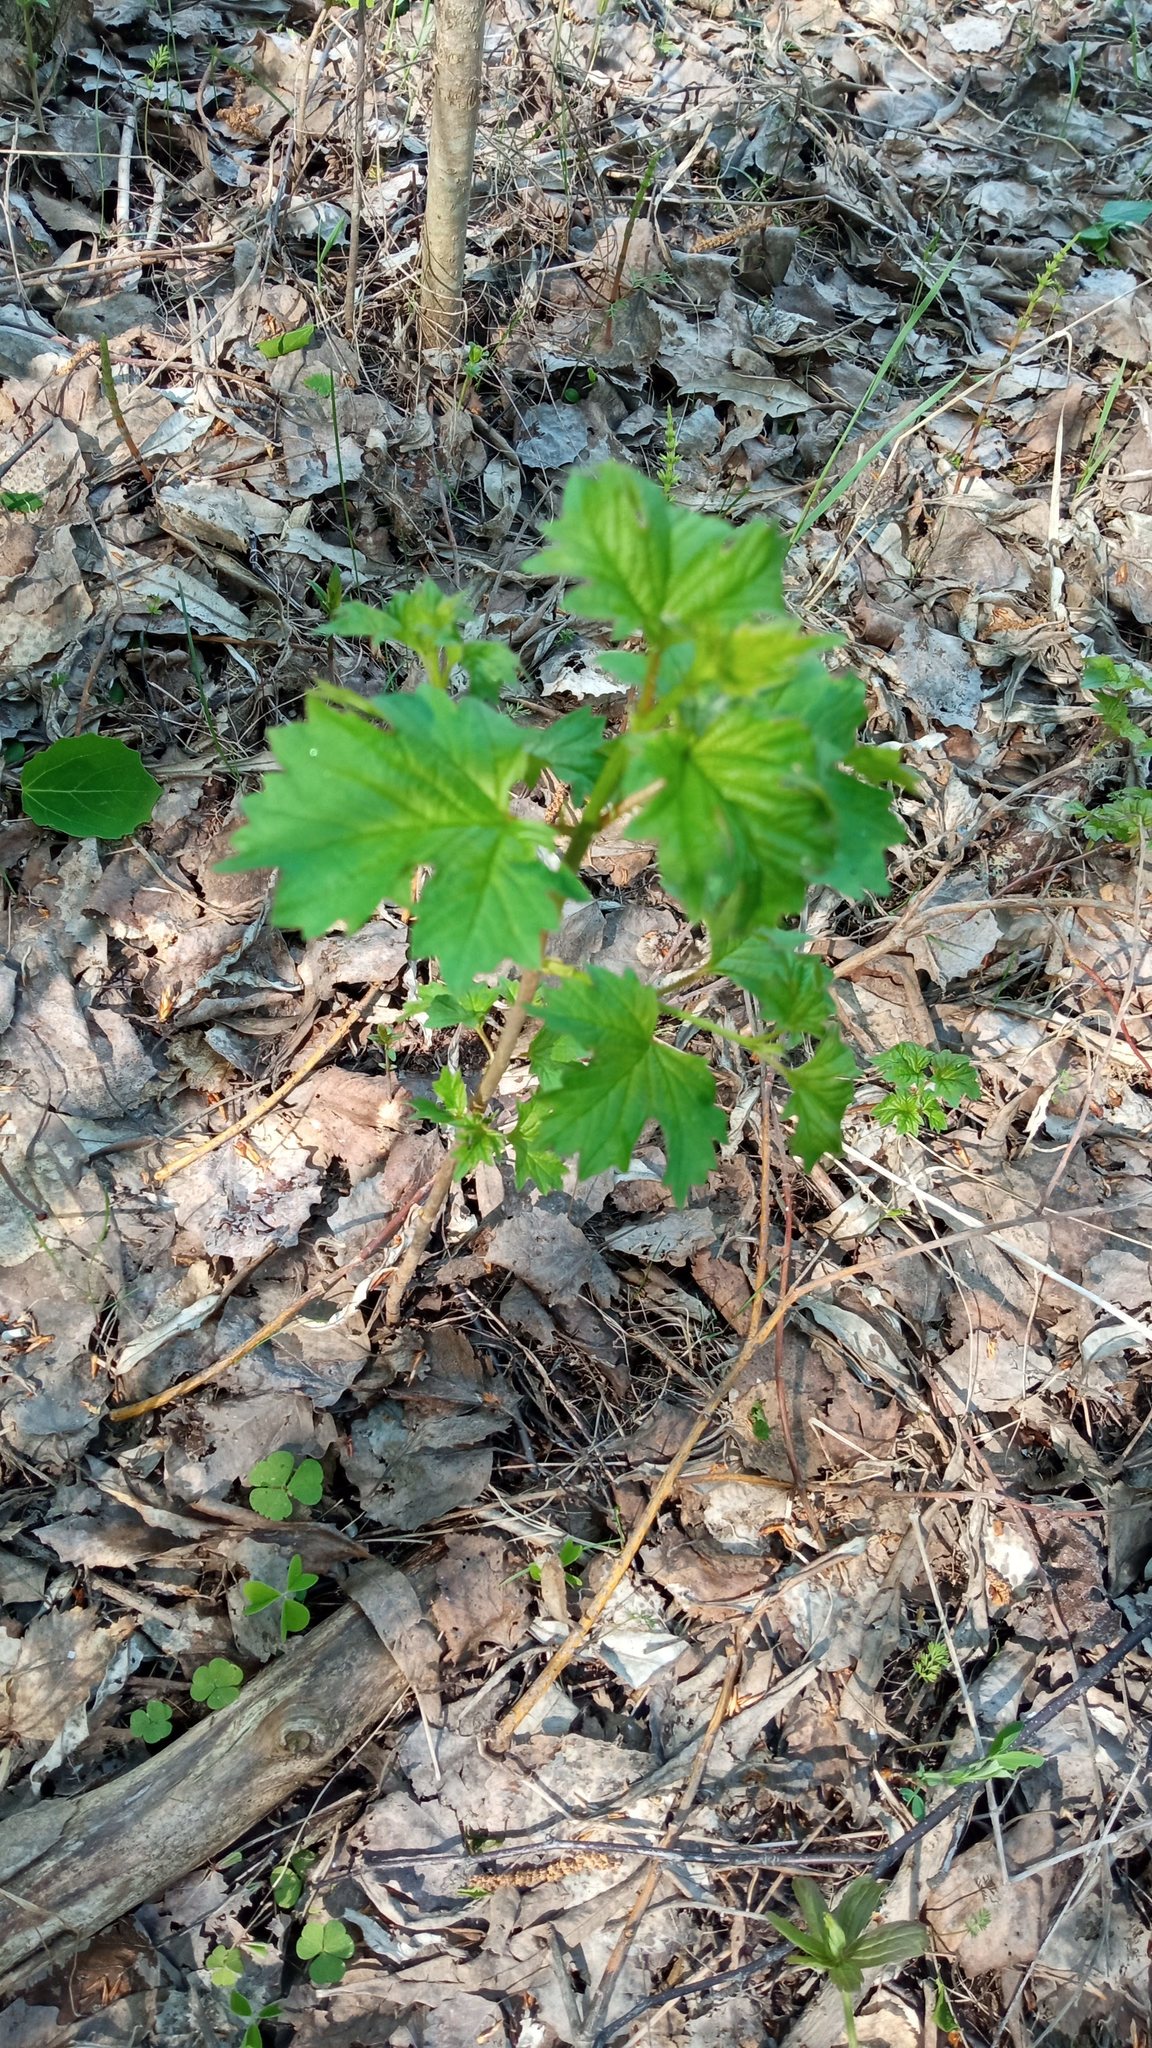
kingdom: Plantae
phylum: Tracheophyta
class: Magnoliopsida
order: Dipsacales
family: Viburnaceae
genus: Viburnum
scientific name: Viburnum opulus
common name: Guelder-rose
